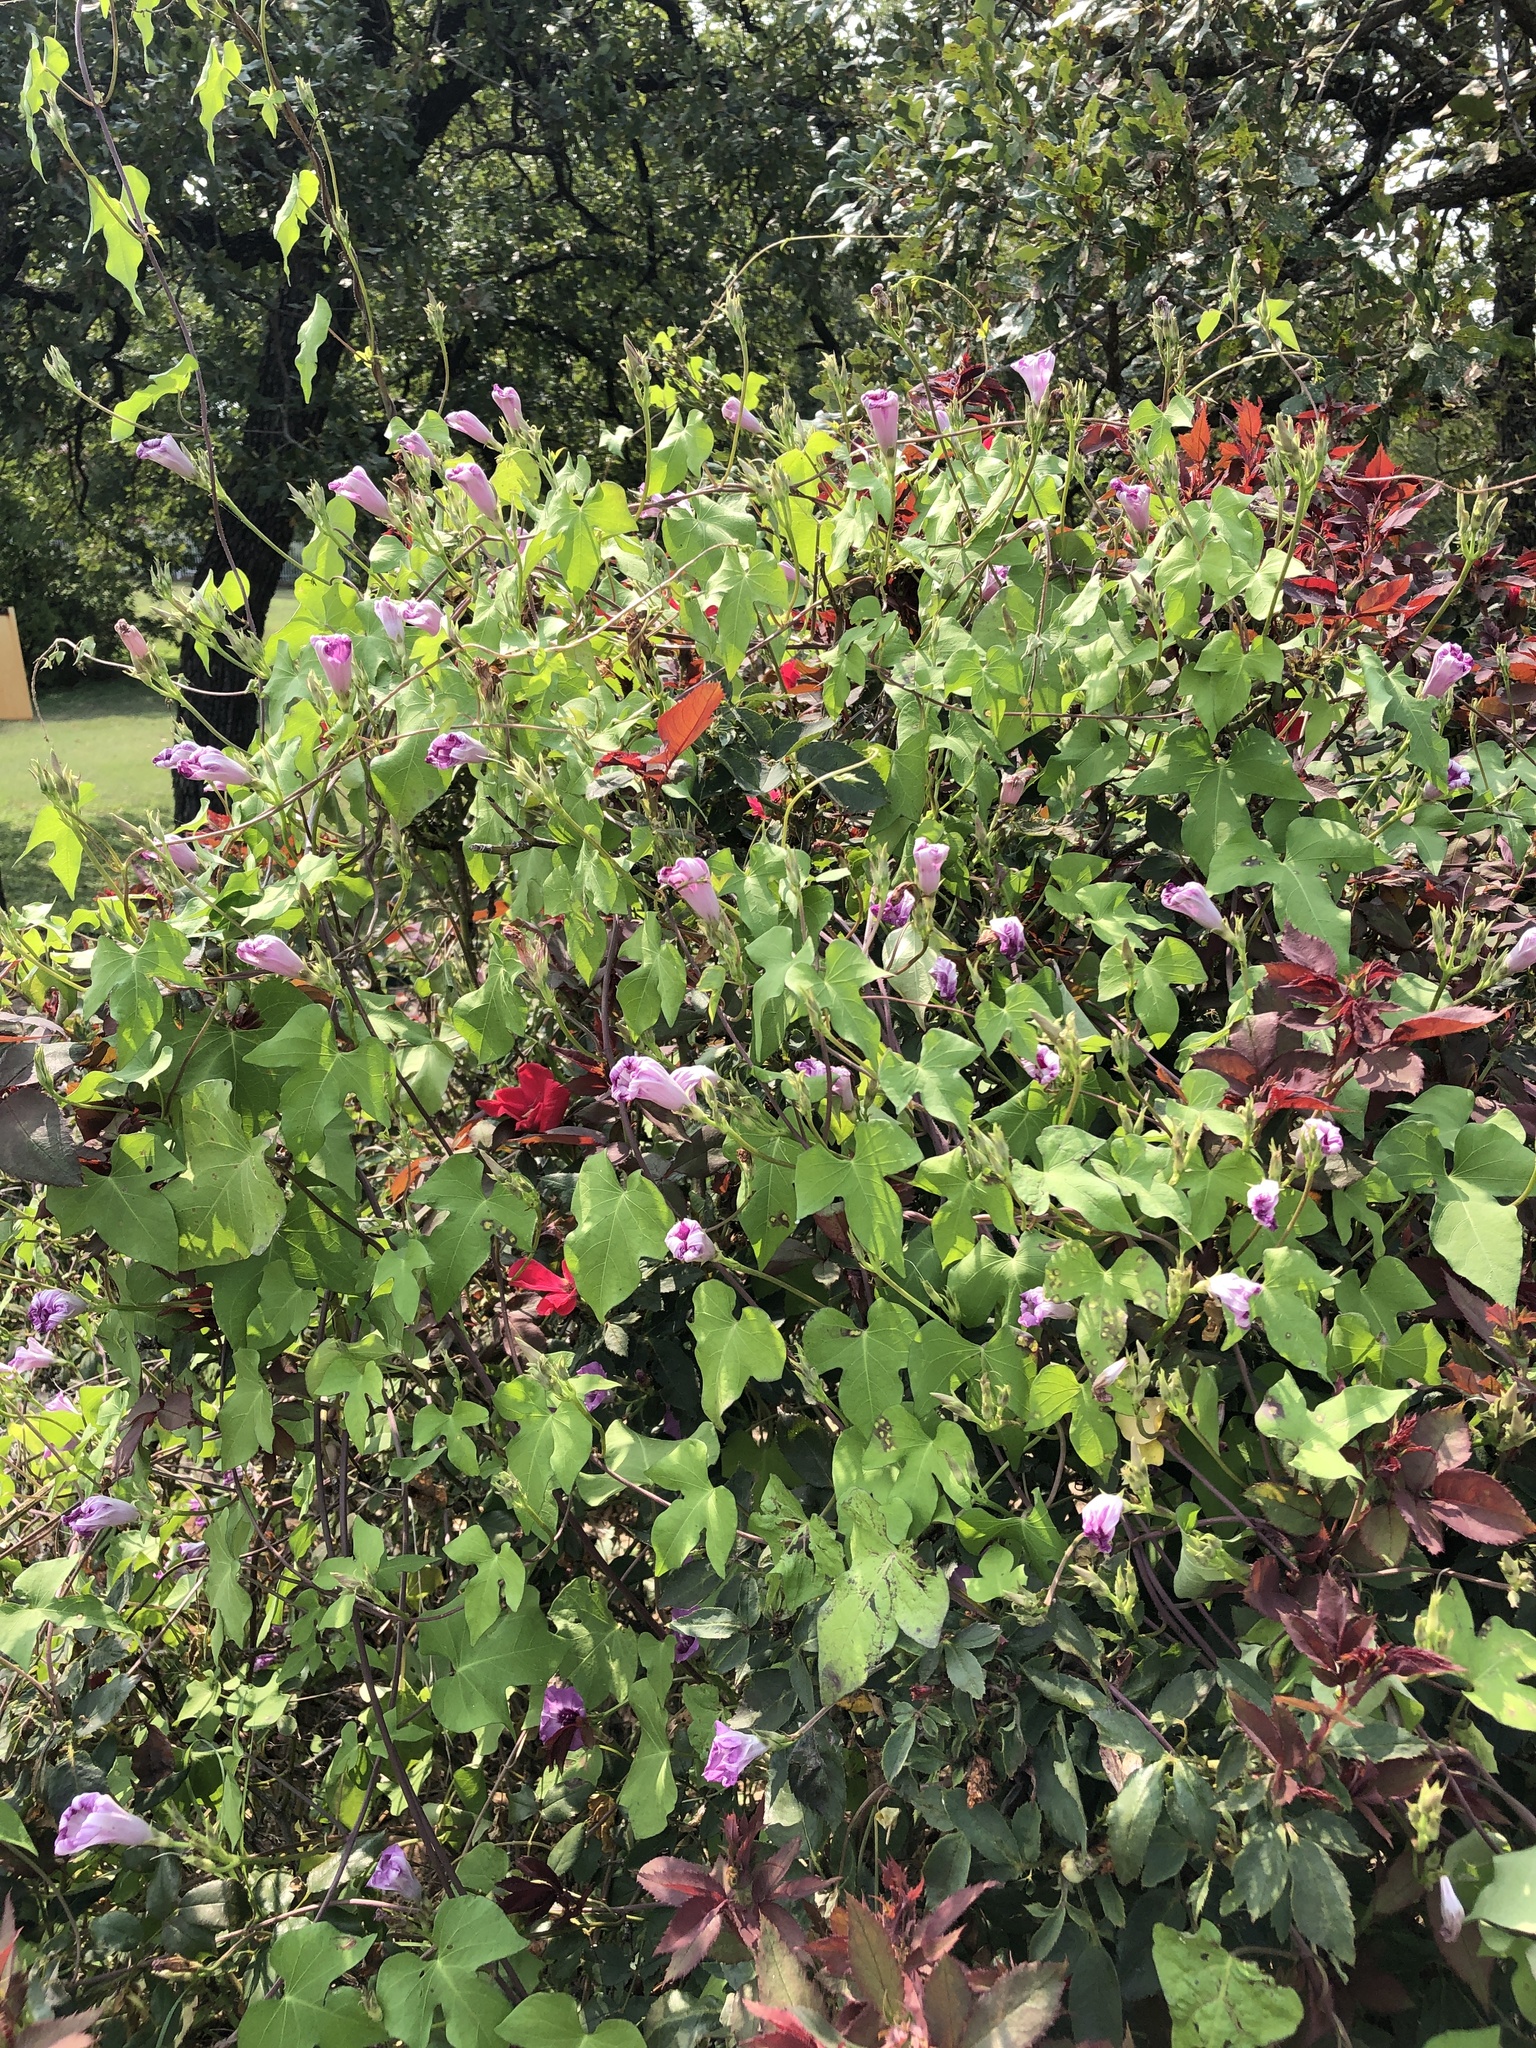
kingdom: Plantae
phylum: Tracheophyta
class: Magnoliopsida
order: Solanales
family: Convolvulaceae
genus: Ipomoea
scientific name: Ipomoea cordatotriloba
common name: Cotton morning glory
